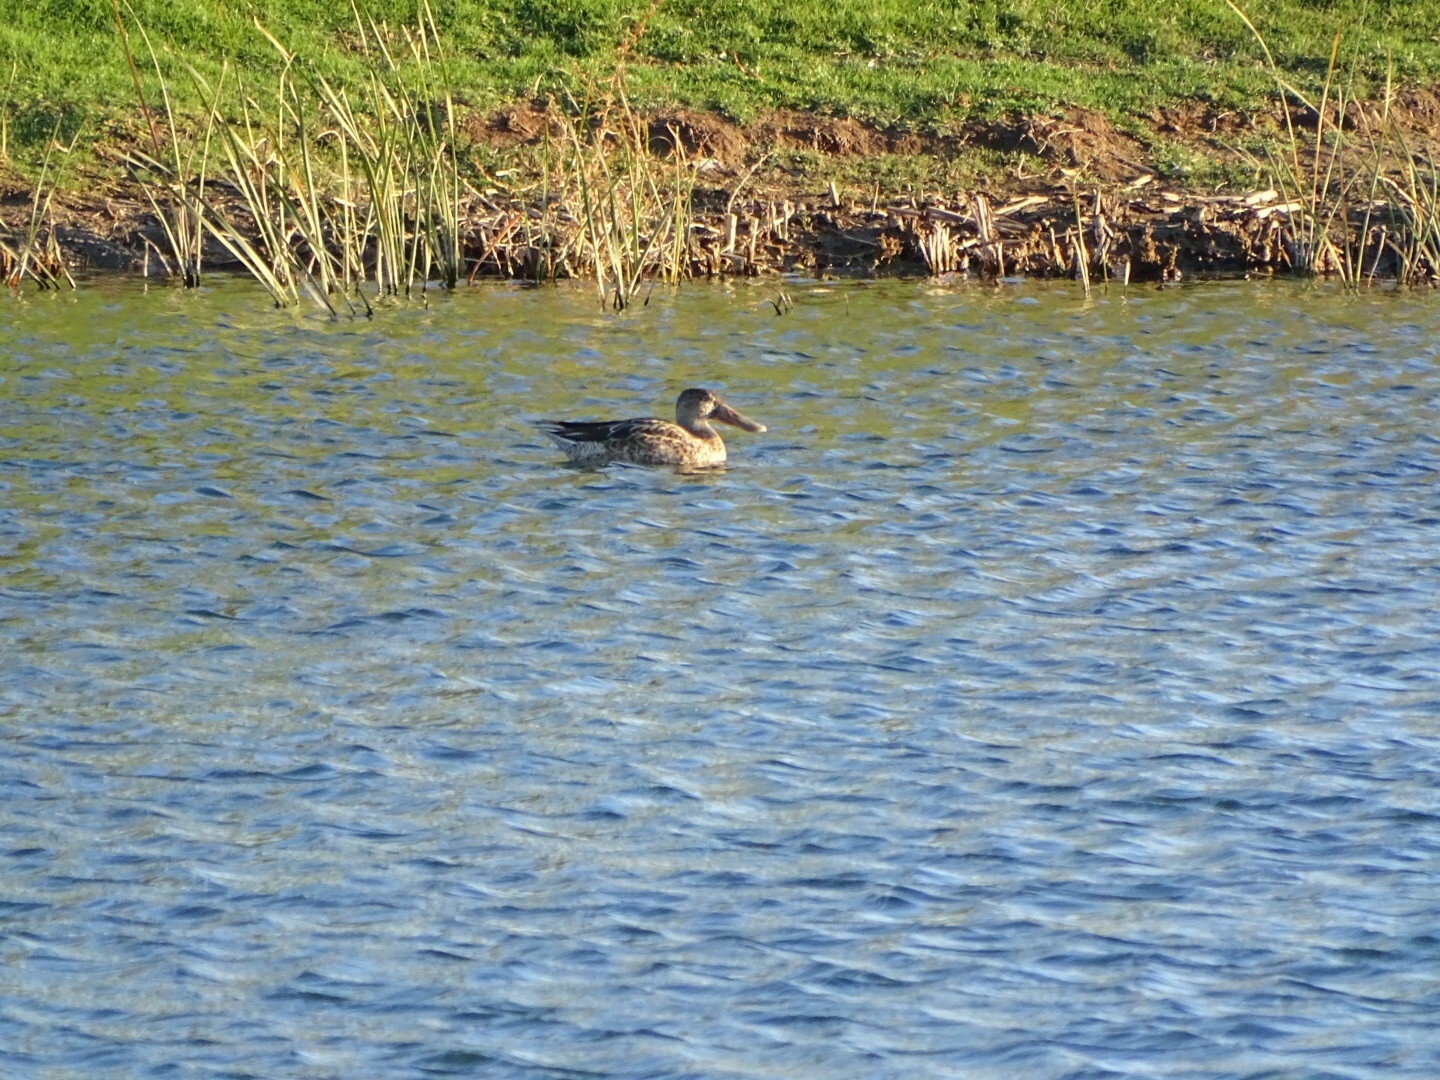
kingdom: Animalia
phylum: Chordata
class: Aves
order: Anseriformes
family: Anatidae
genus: Spatula
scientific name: Spatula clypeata
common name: Northern shoveler
